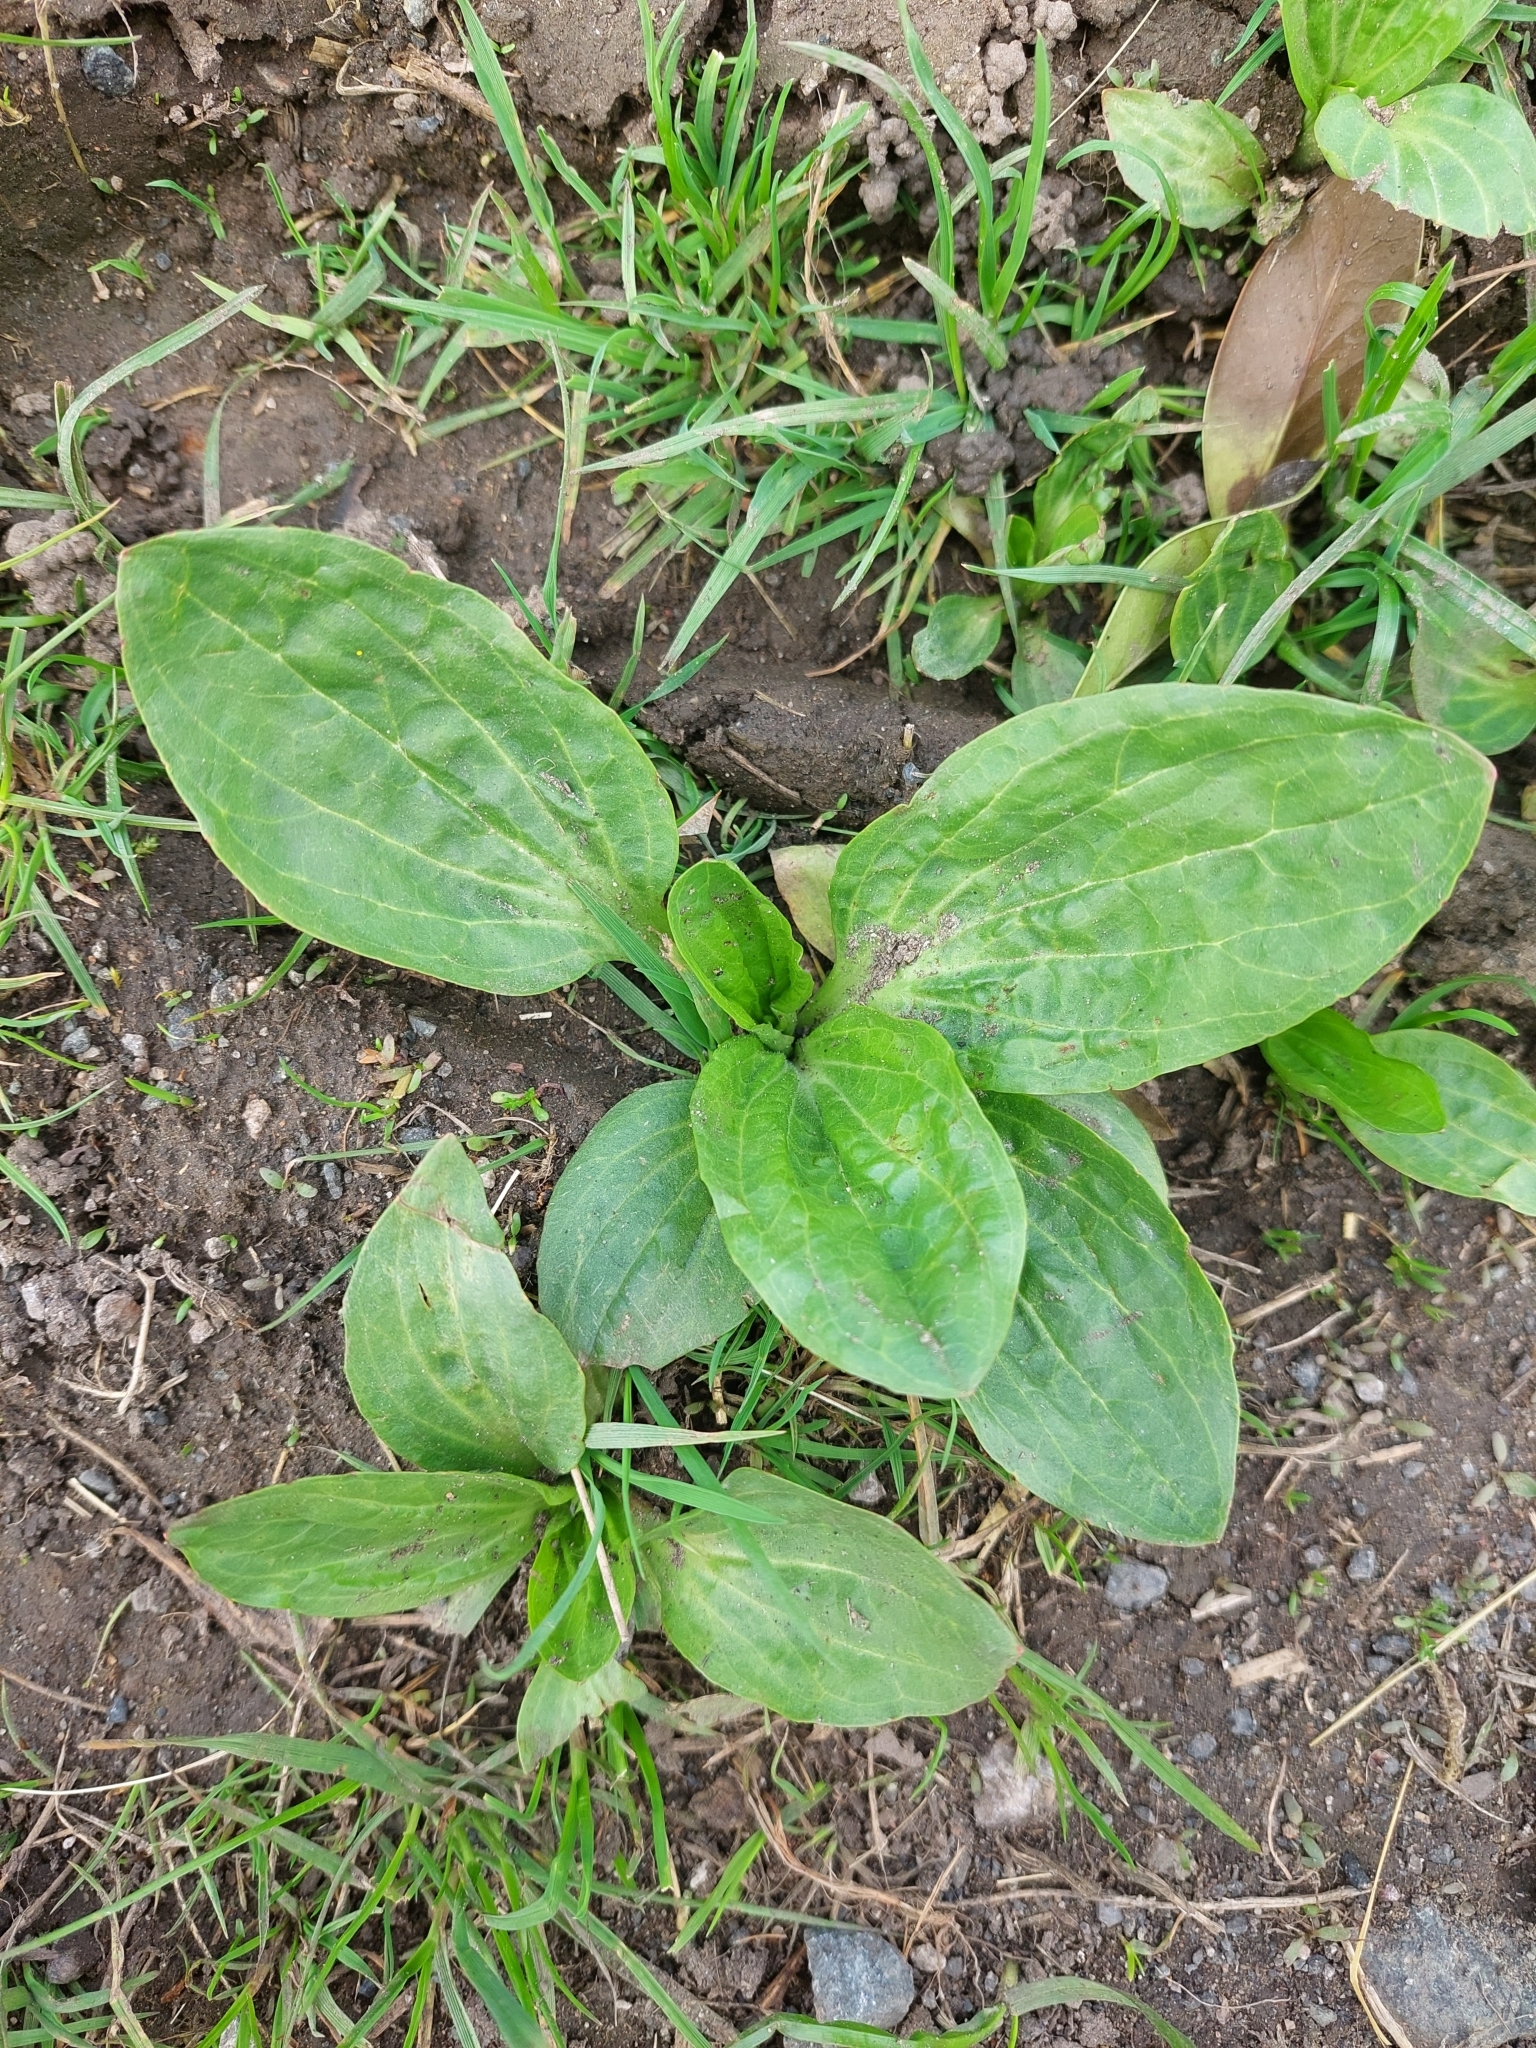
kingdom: Plantae
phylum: Tracheophyta
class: Magnoliopsida
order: Lamiales
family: Plantaginaceae
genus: Plantago
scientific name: Plantago major
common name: Common plantain
